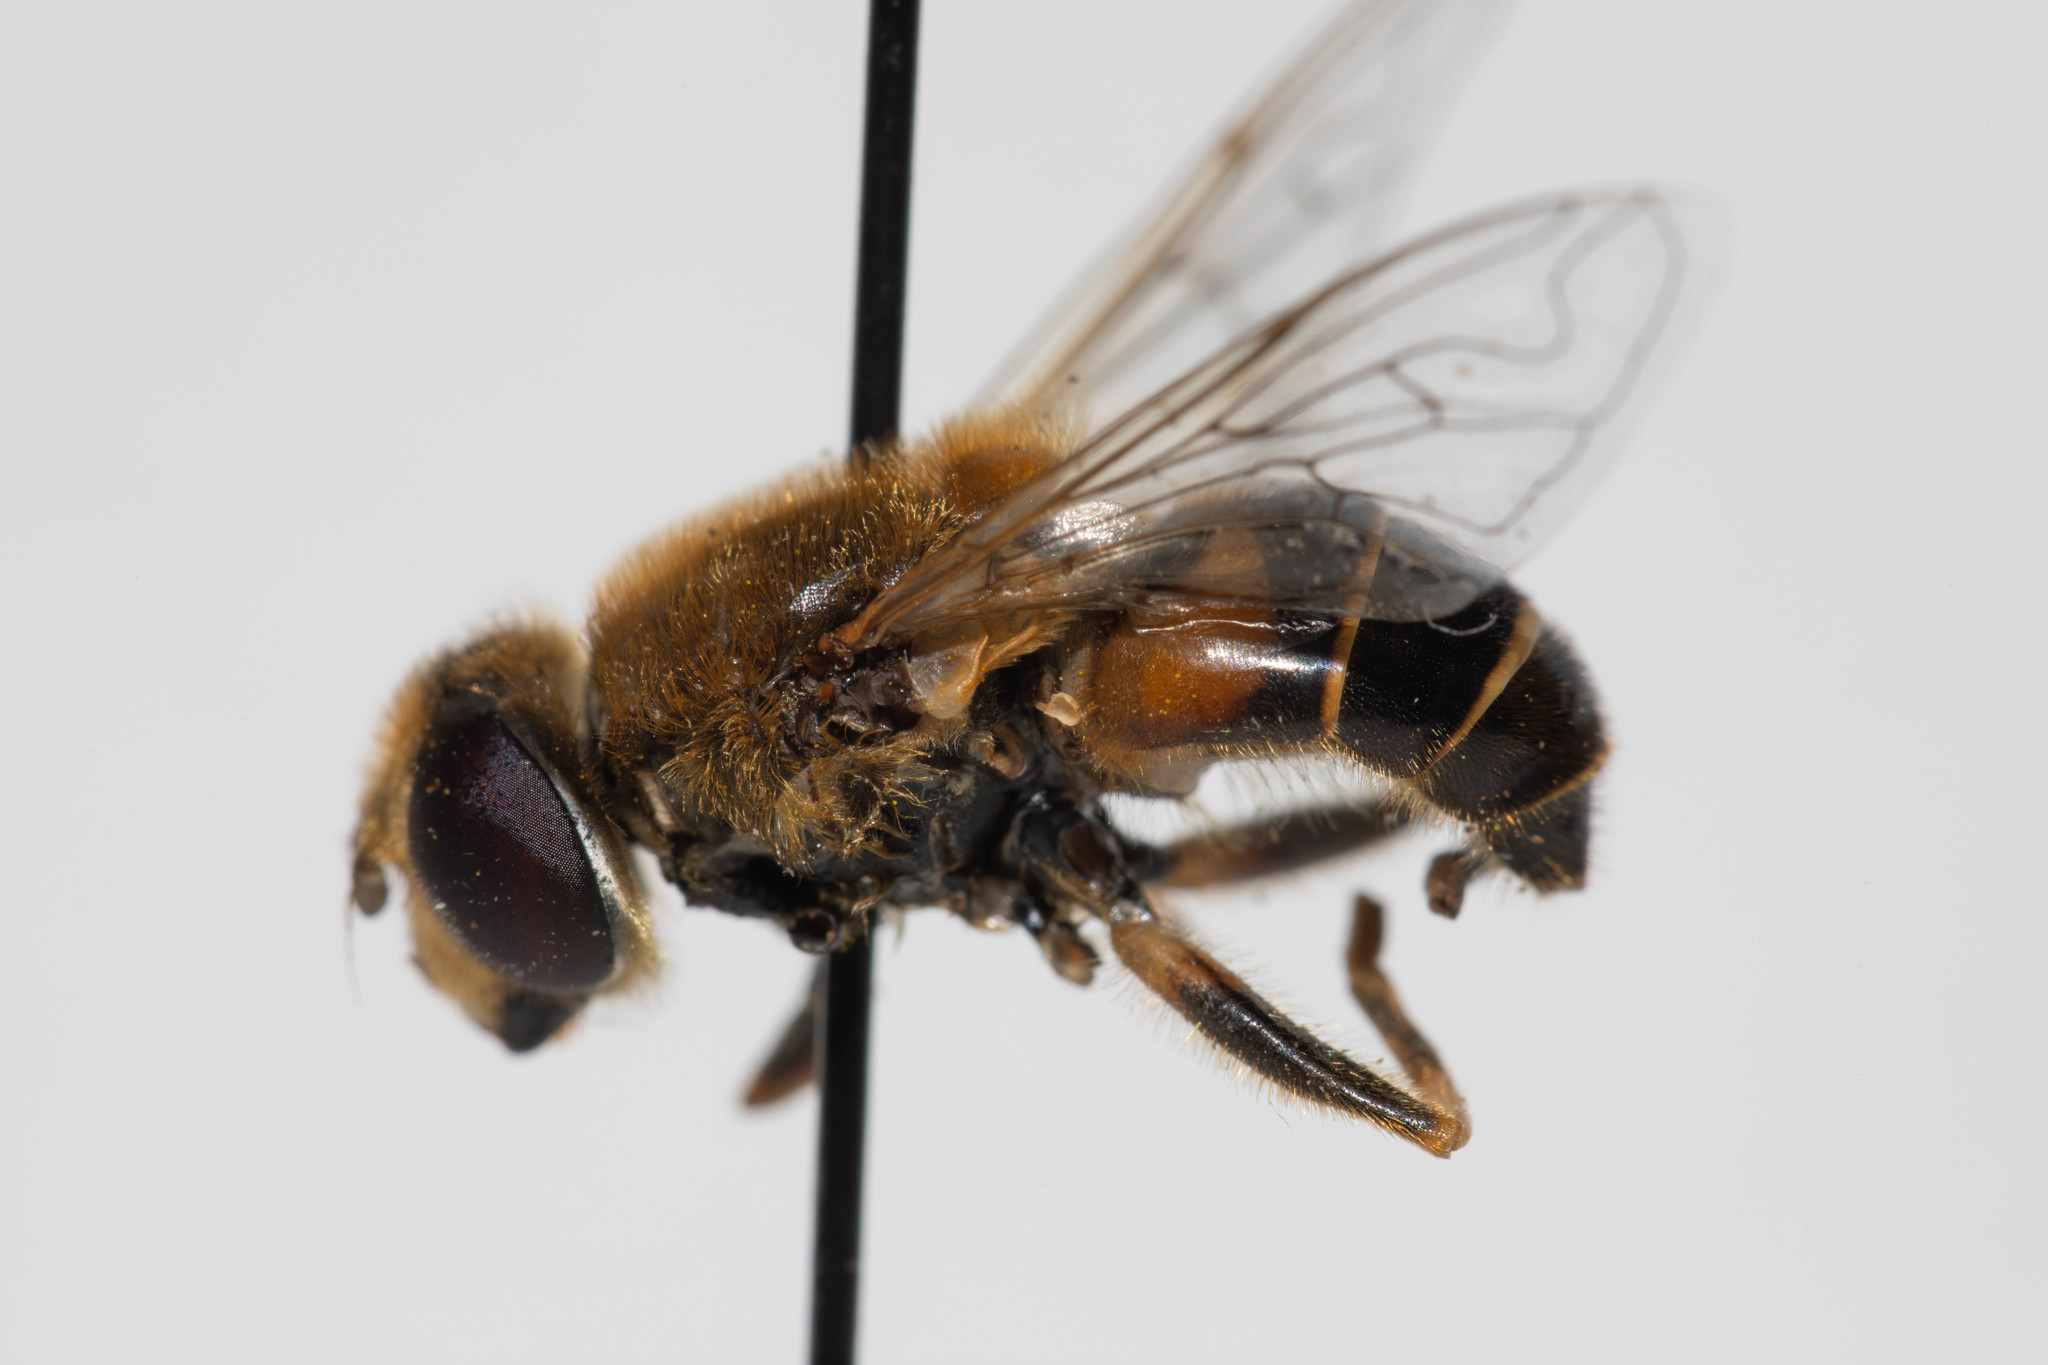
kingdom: Animalia
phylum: Arthropoda
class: Insecta
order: Diptera
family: Syrphidae
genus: Eristalis
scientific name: Eristalis nemorum
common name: Orange-spined drone fly
